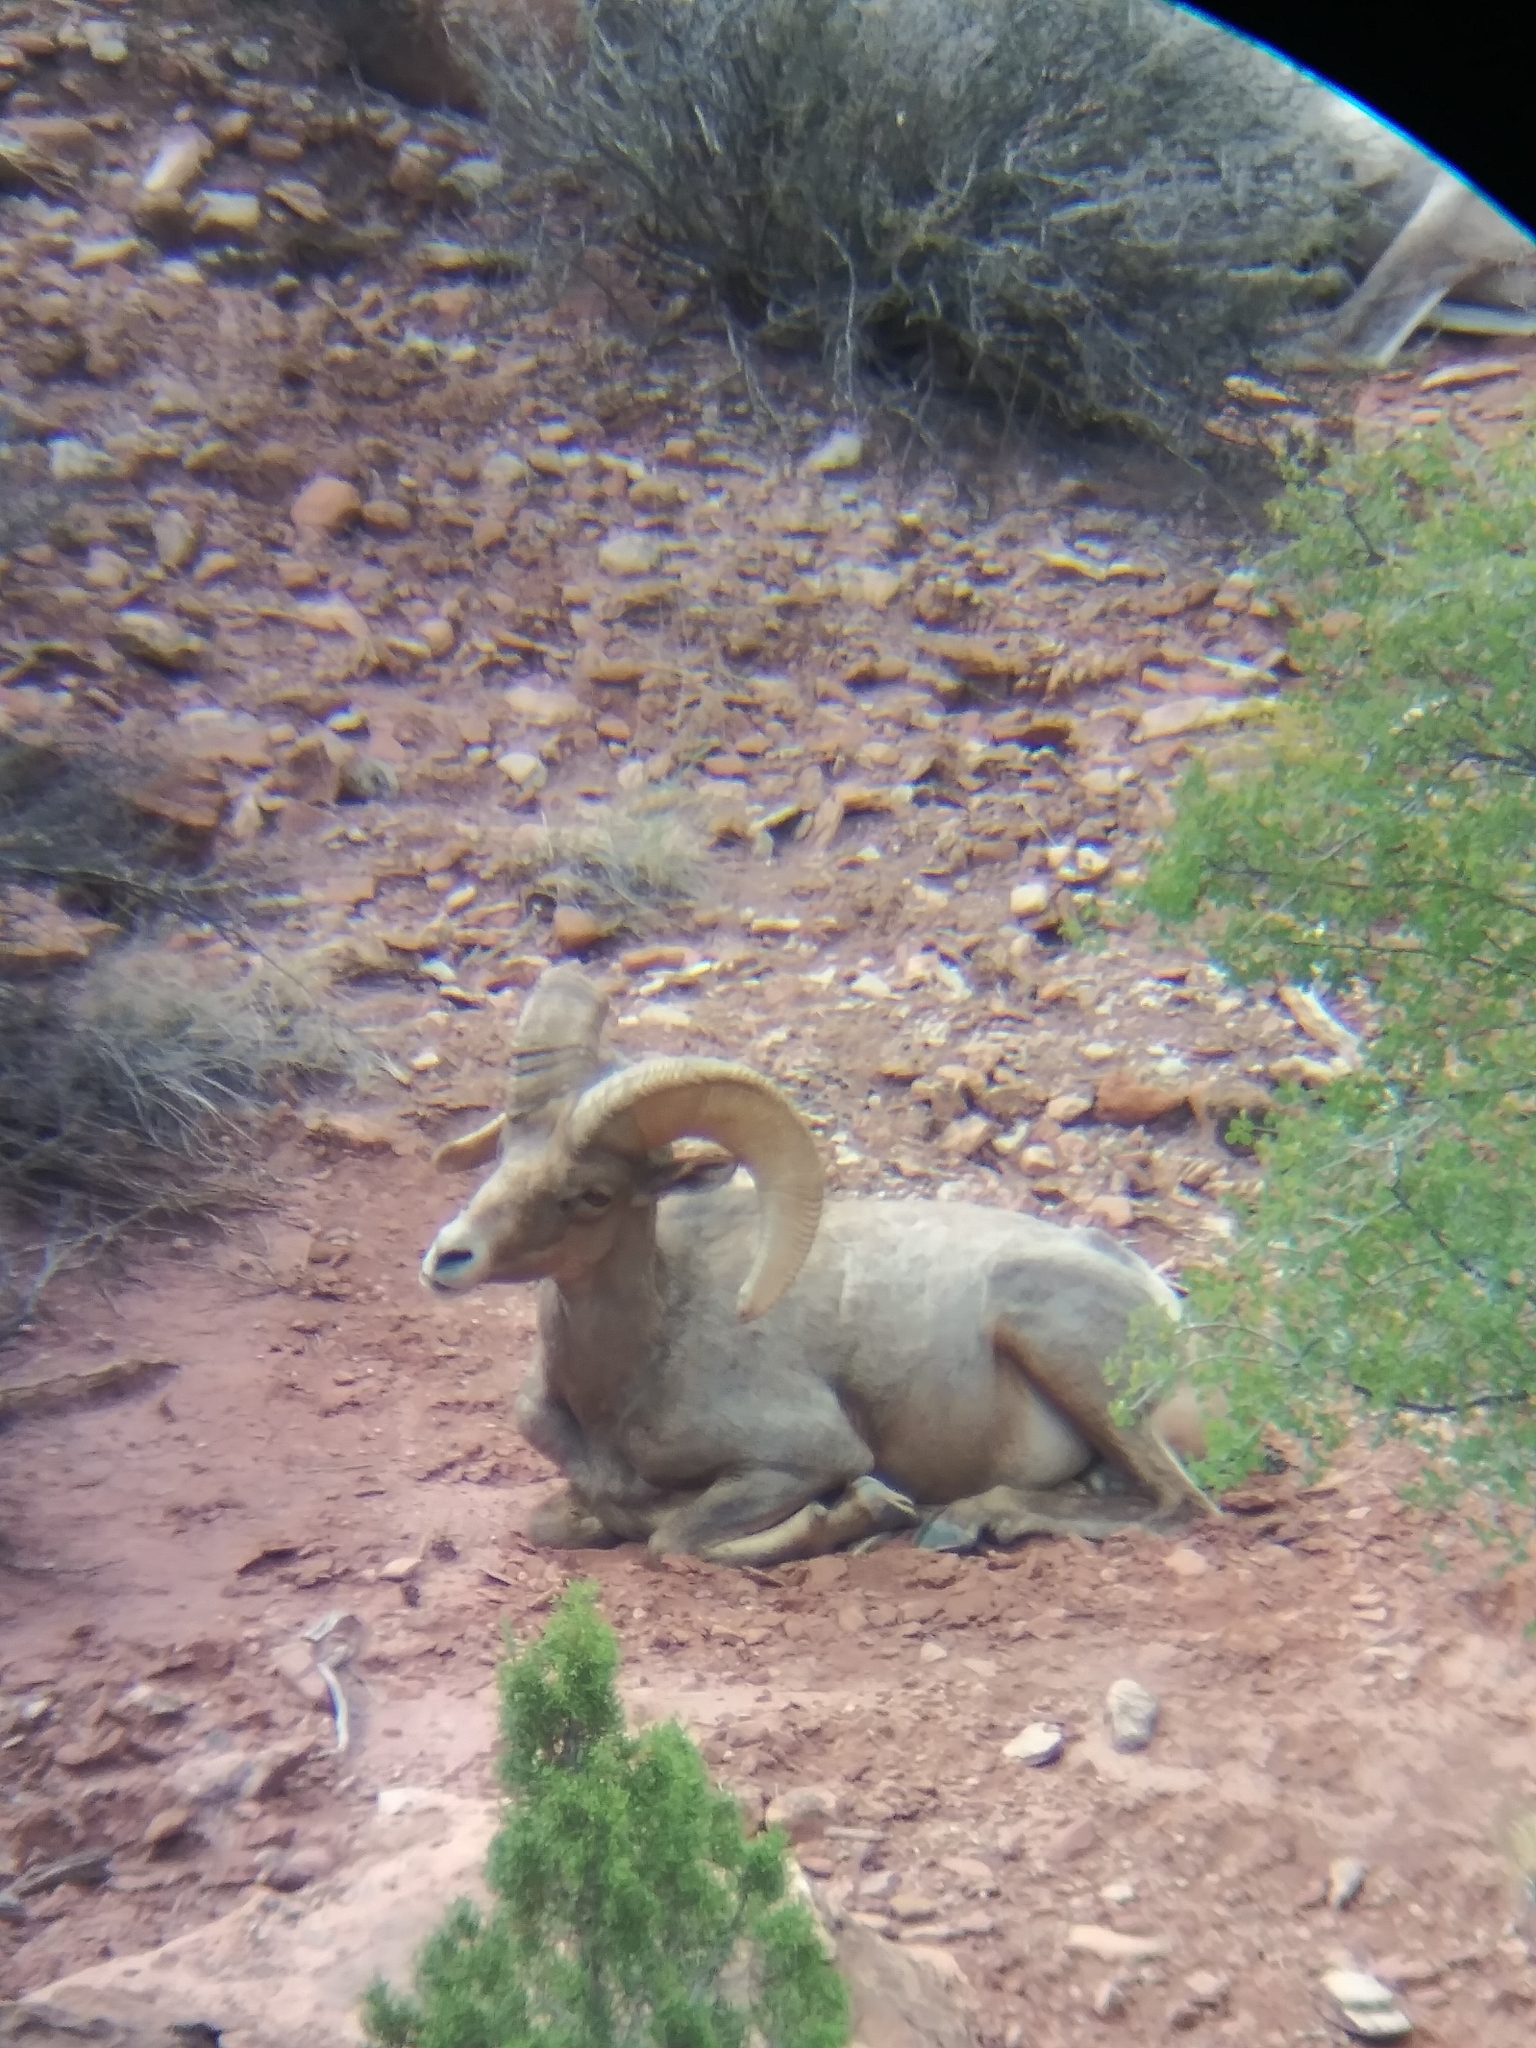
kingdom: Animalia
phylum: Chordata
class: Mammalia
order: Artiodactyla
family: Bovidae
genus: Ovis
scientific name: Ovis canadensis
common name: Bighorn sheep
